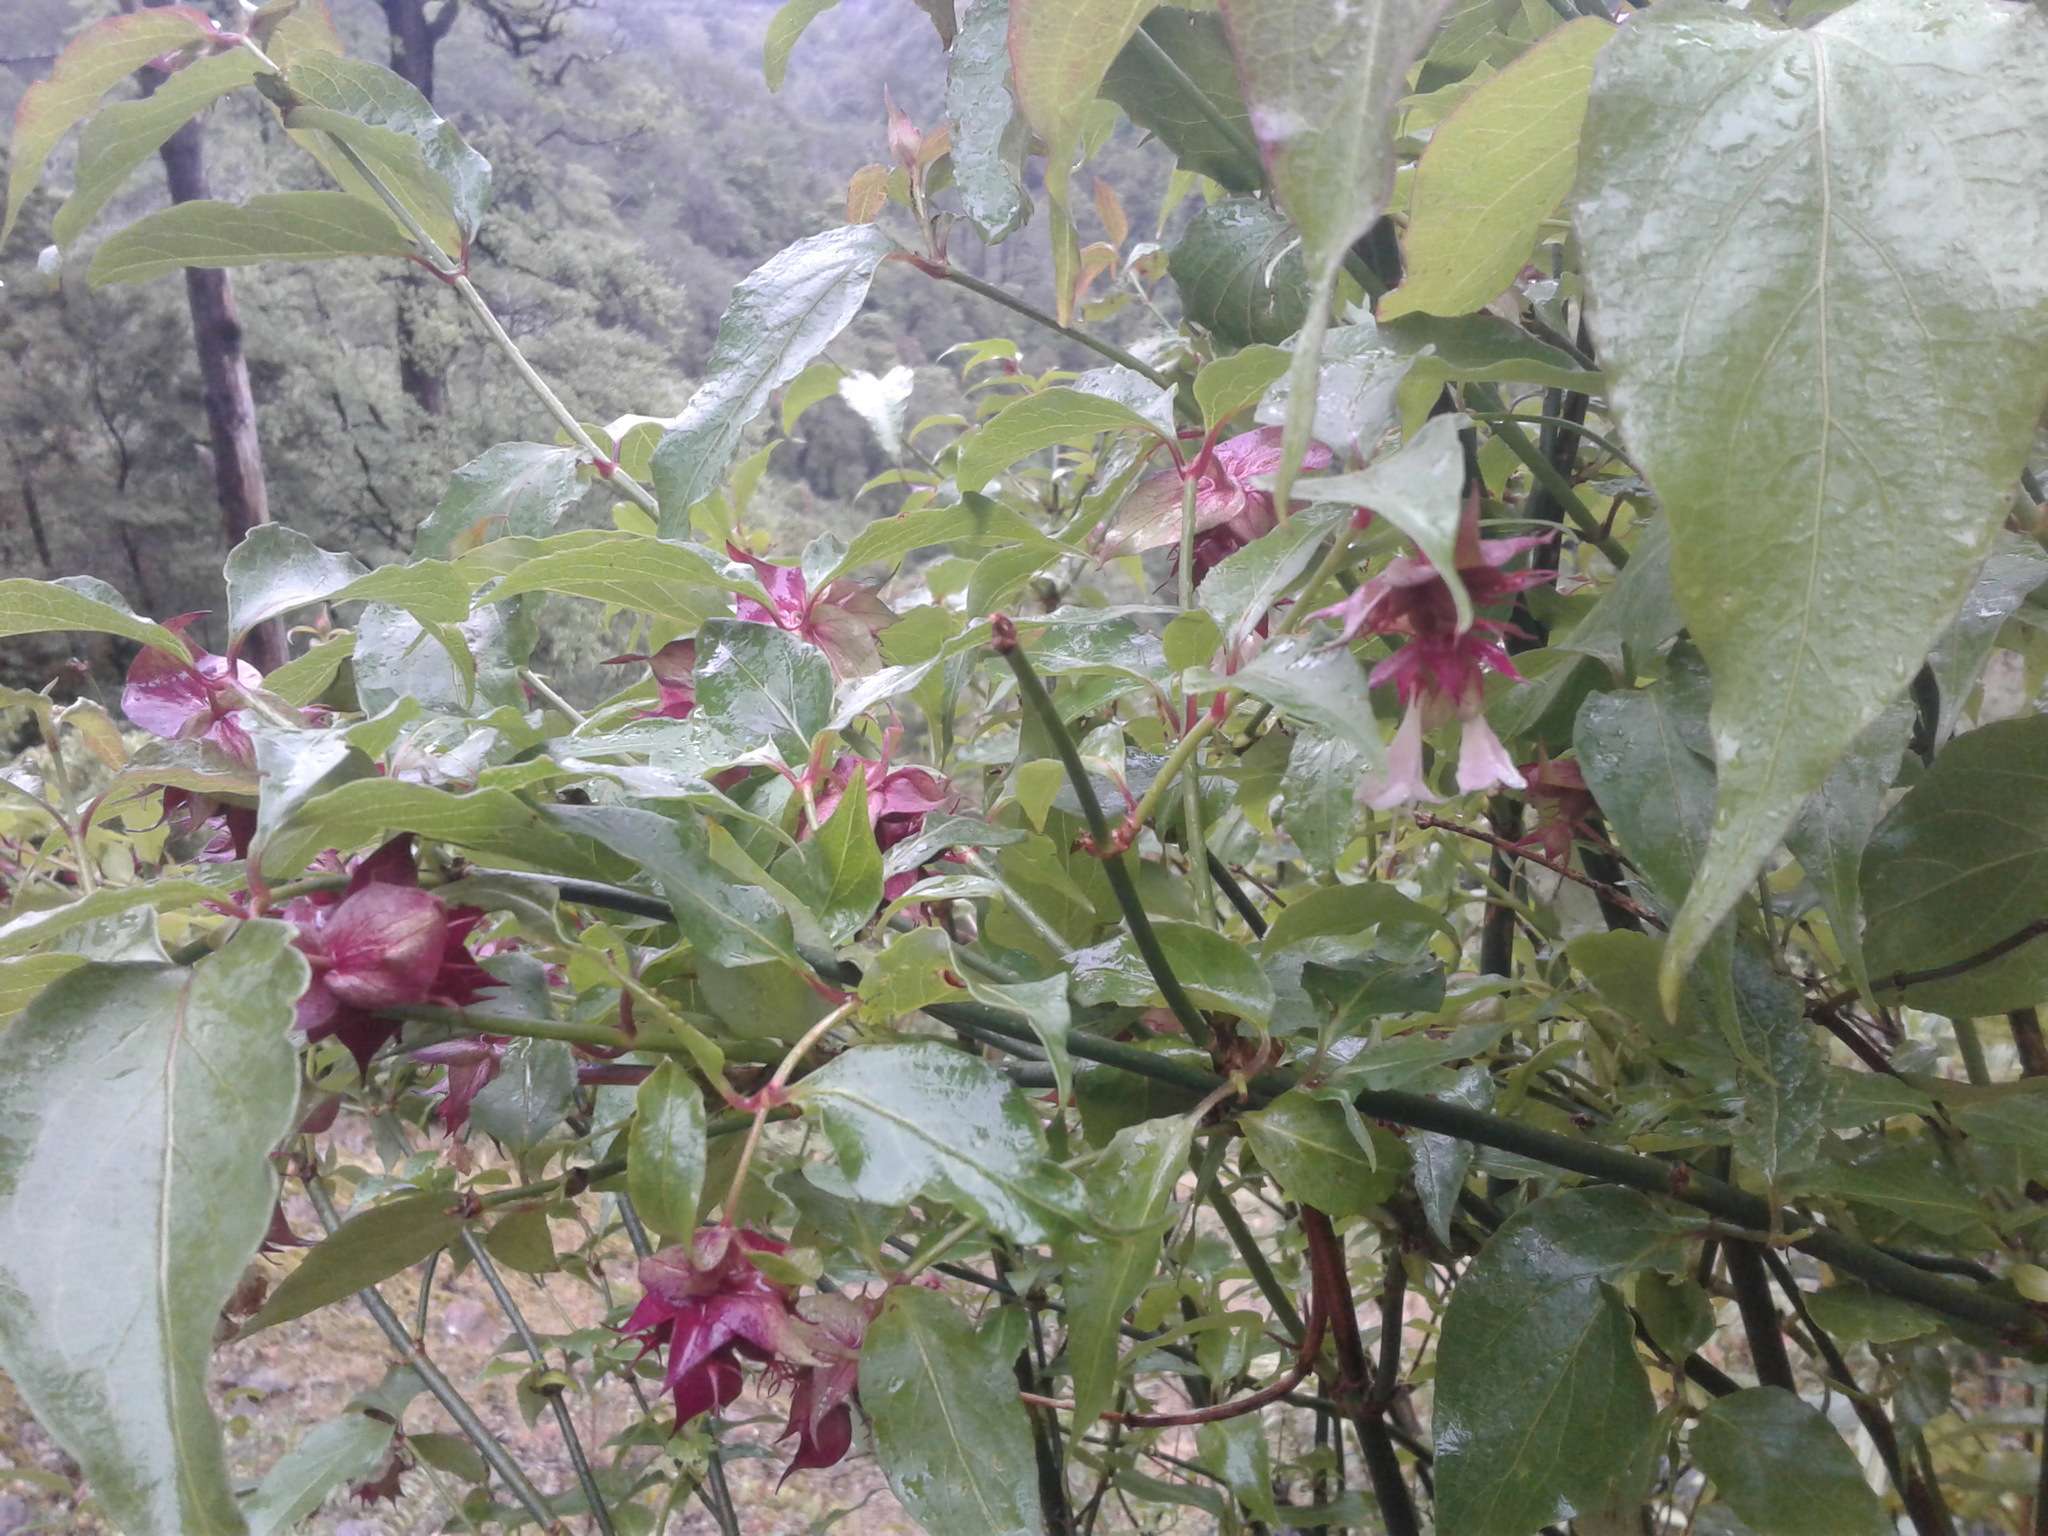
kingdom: Plantae
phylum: Tracheophyta
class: Magnoliopsida
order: Dipsacales
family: Caprifoliaceae
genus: Leycesteria
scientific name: Leycesteria formosa
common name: Himalayan honeysuckle
